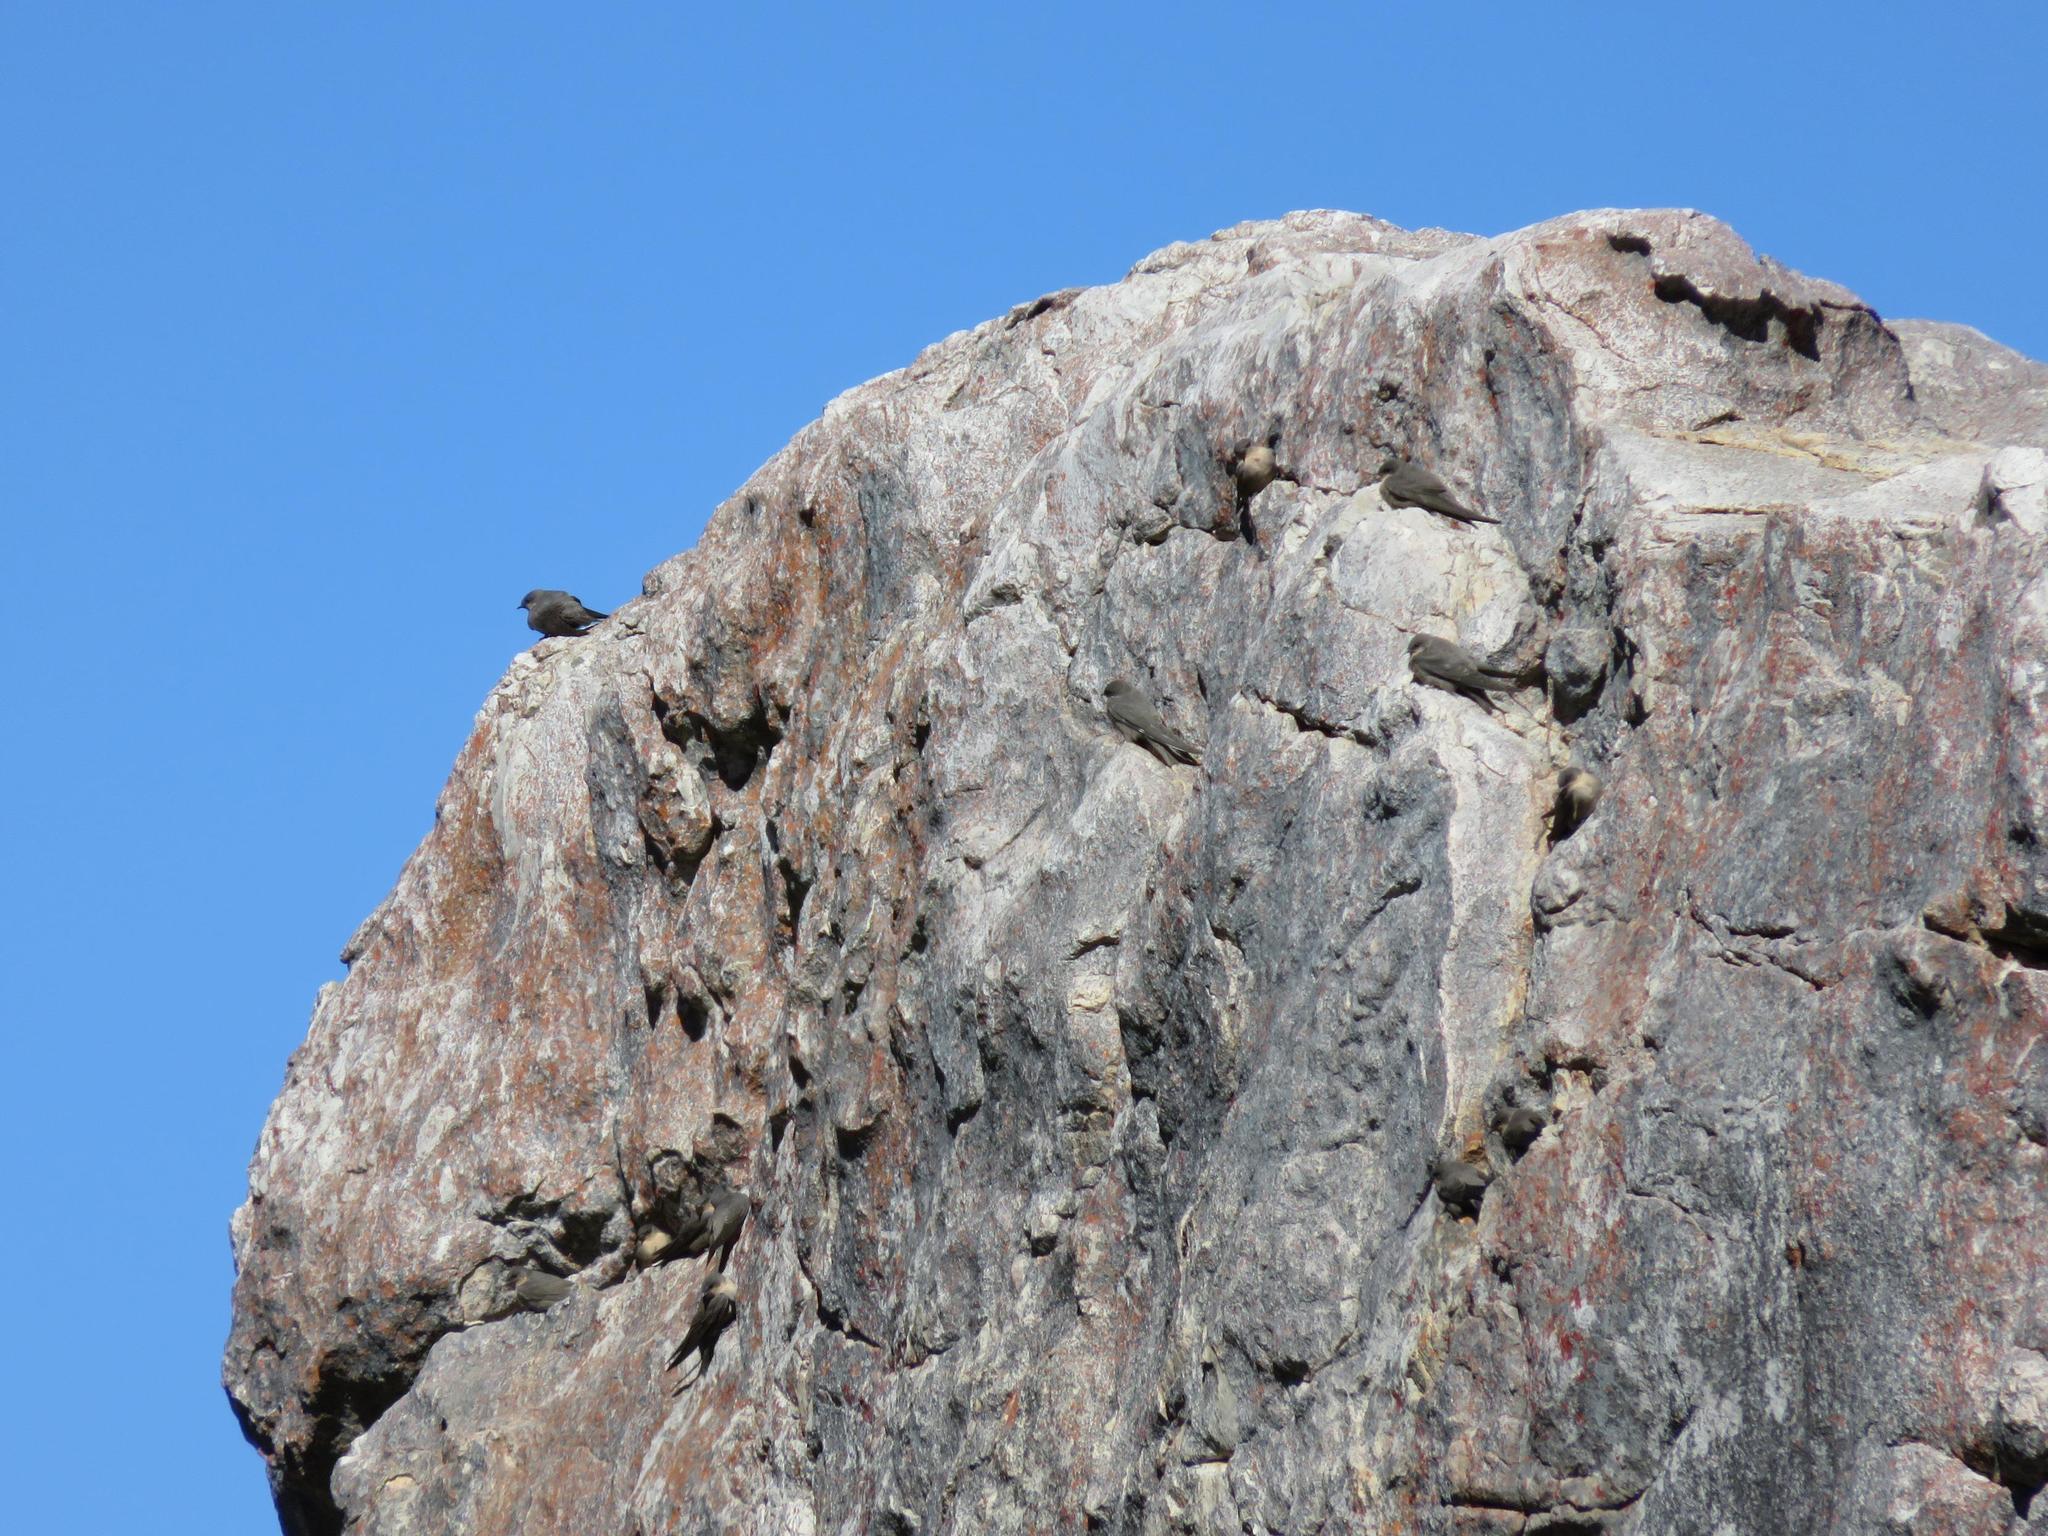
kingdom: Animalia
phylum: Chordata
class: Aves
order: Passeriformes
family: Hirundinidae
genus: Ptyonoprogne
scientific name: Ptyonoprogne fuligula
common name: Rock martin
